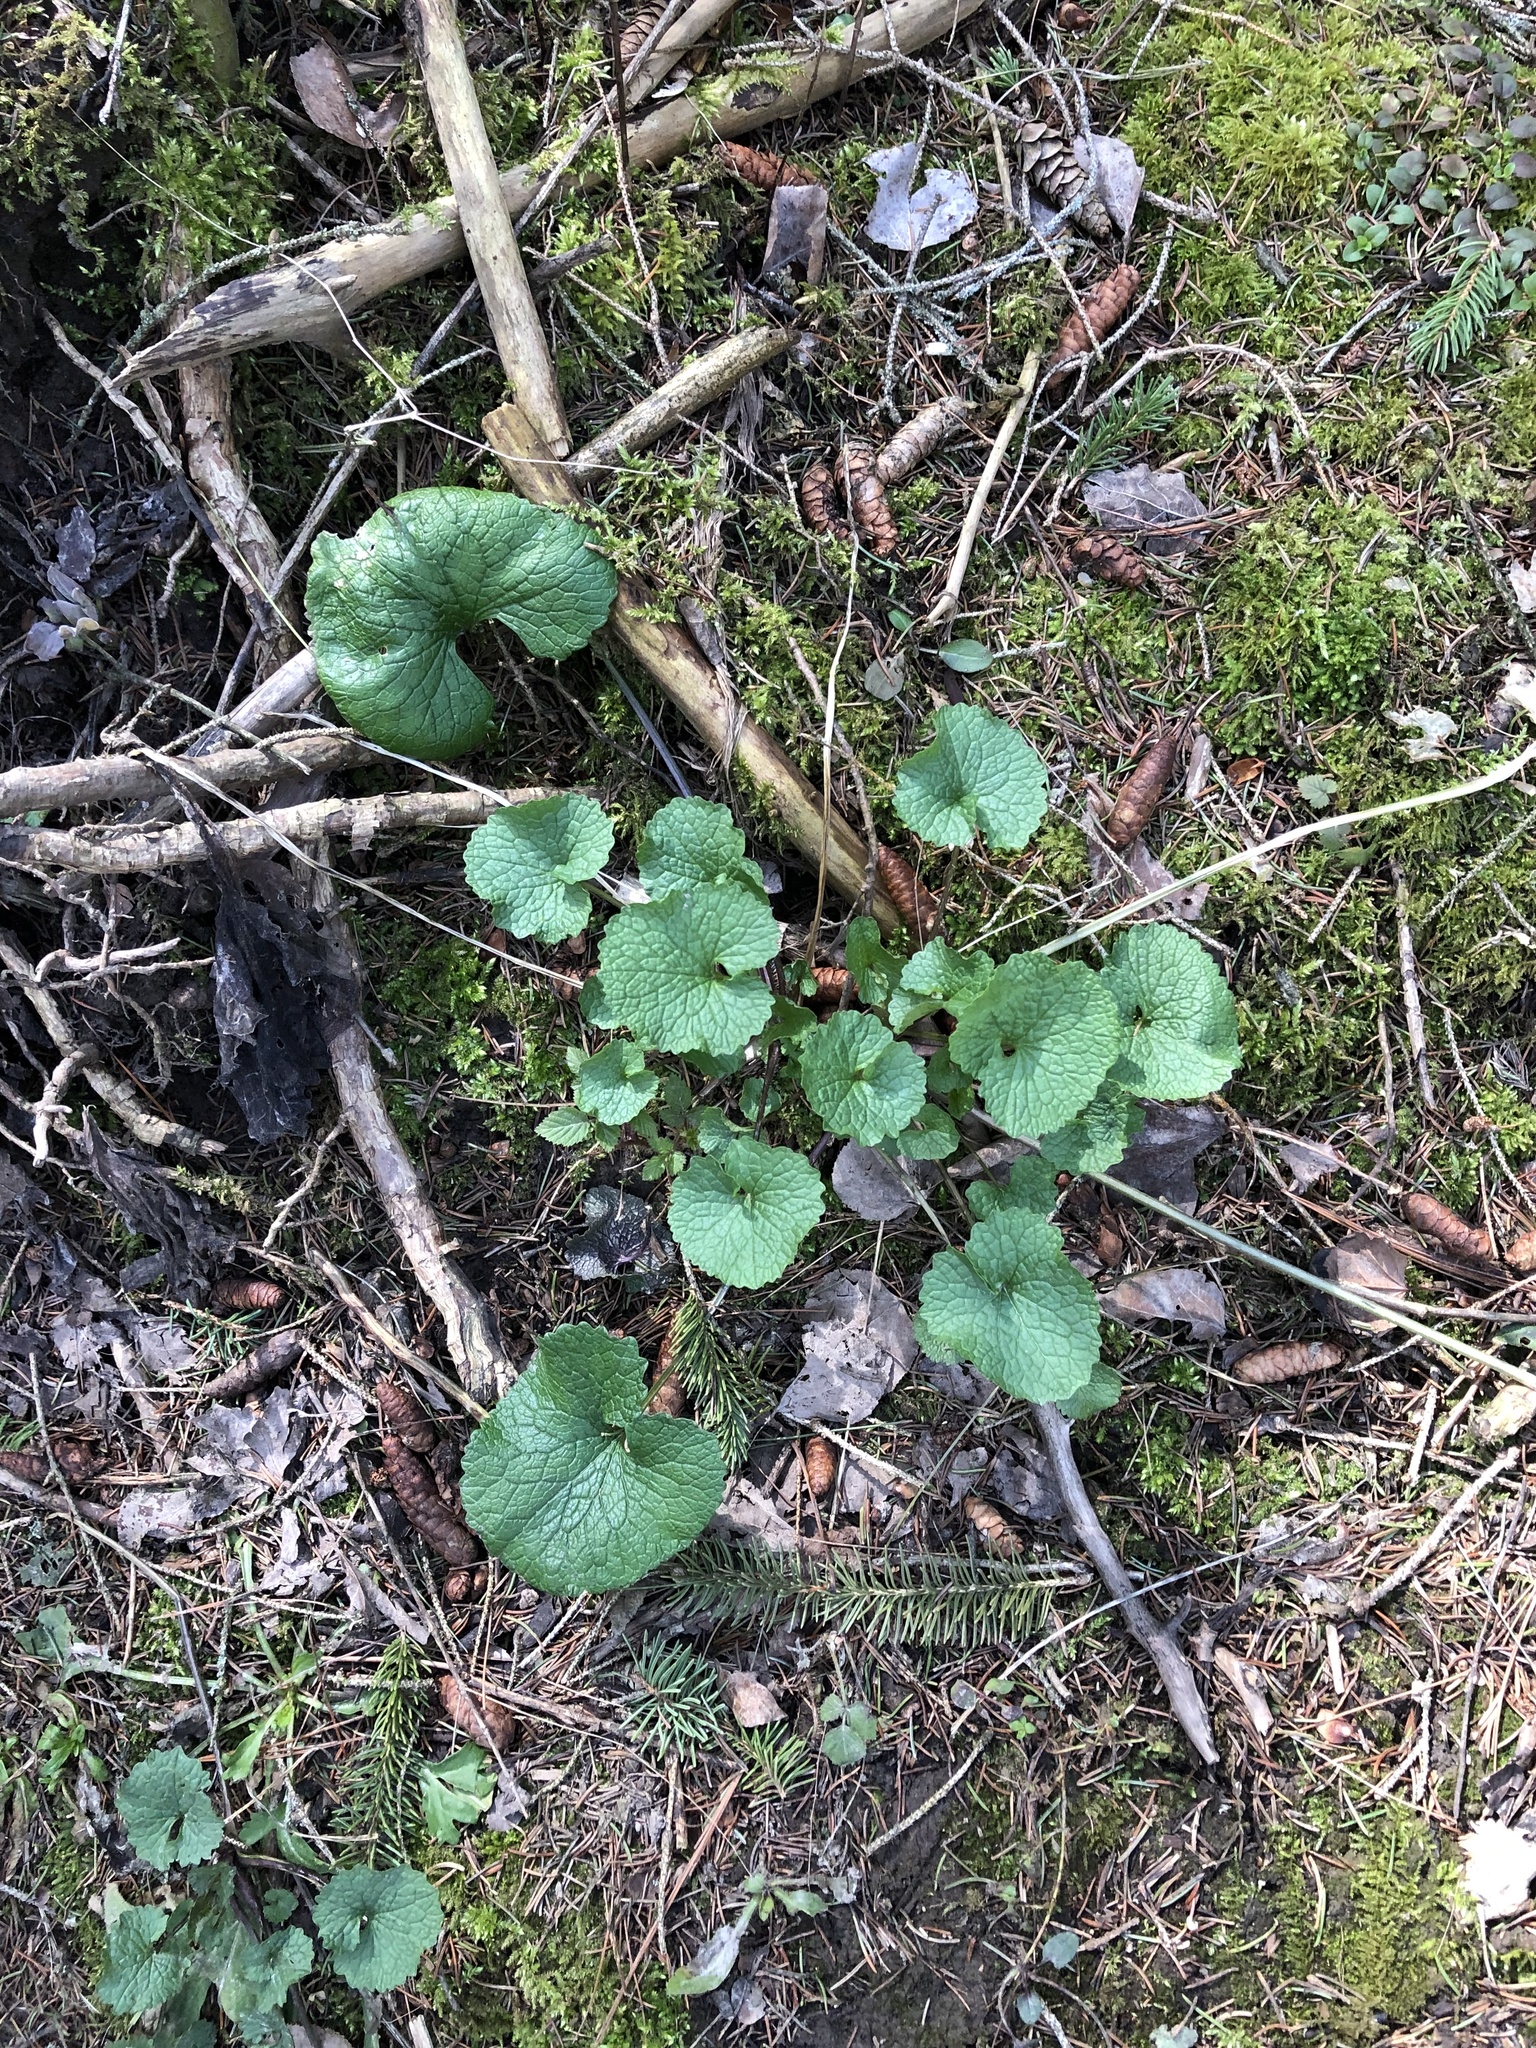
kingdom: Plantae
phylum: Tracheophyta
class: Magnoliopsida
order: Brassicales
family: Brassicaceae
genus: Alliaria
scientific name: Alliaria petiolata
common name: Garlic mustard
